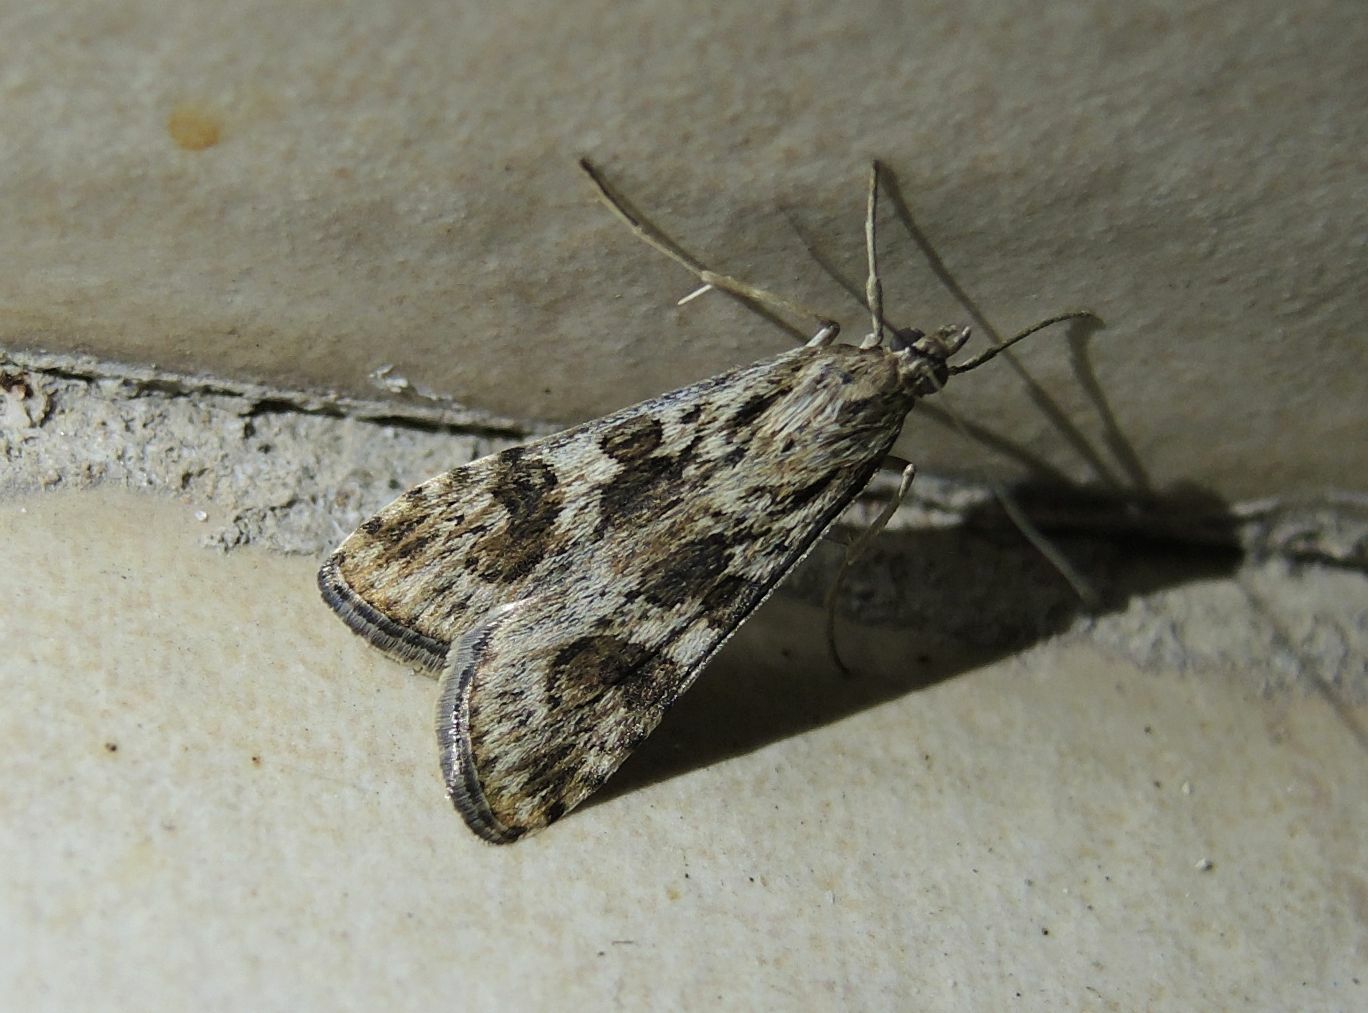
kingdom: Animalia
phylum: Arthropoda
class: Insecta
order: Lepidoptera
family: Crambidae
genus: Nomophila
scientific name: Nomophila noctuella
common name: Rush veneer
